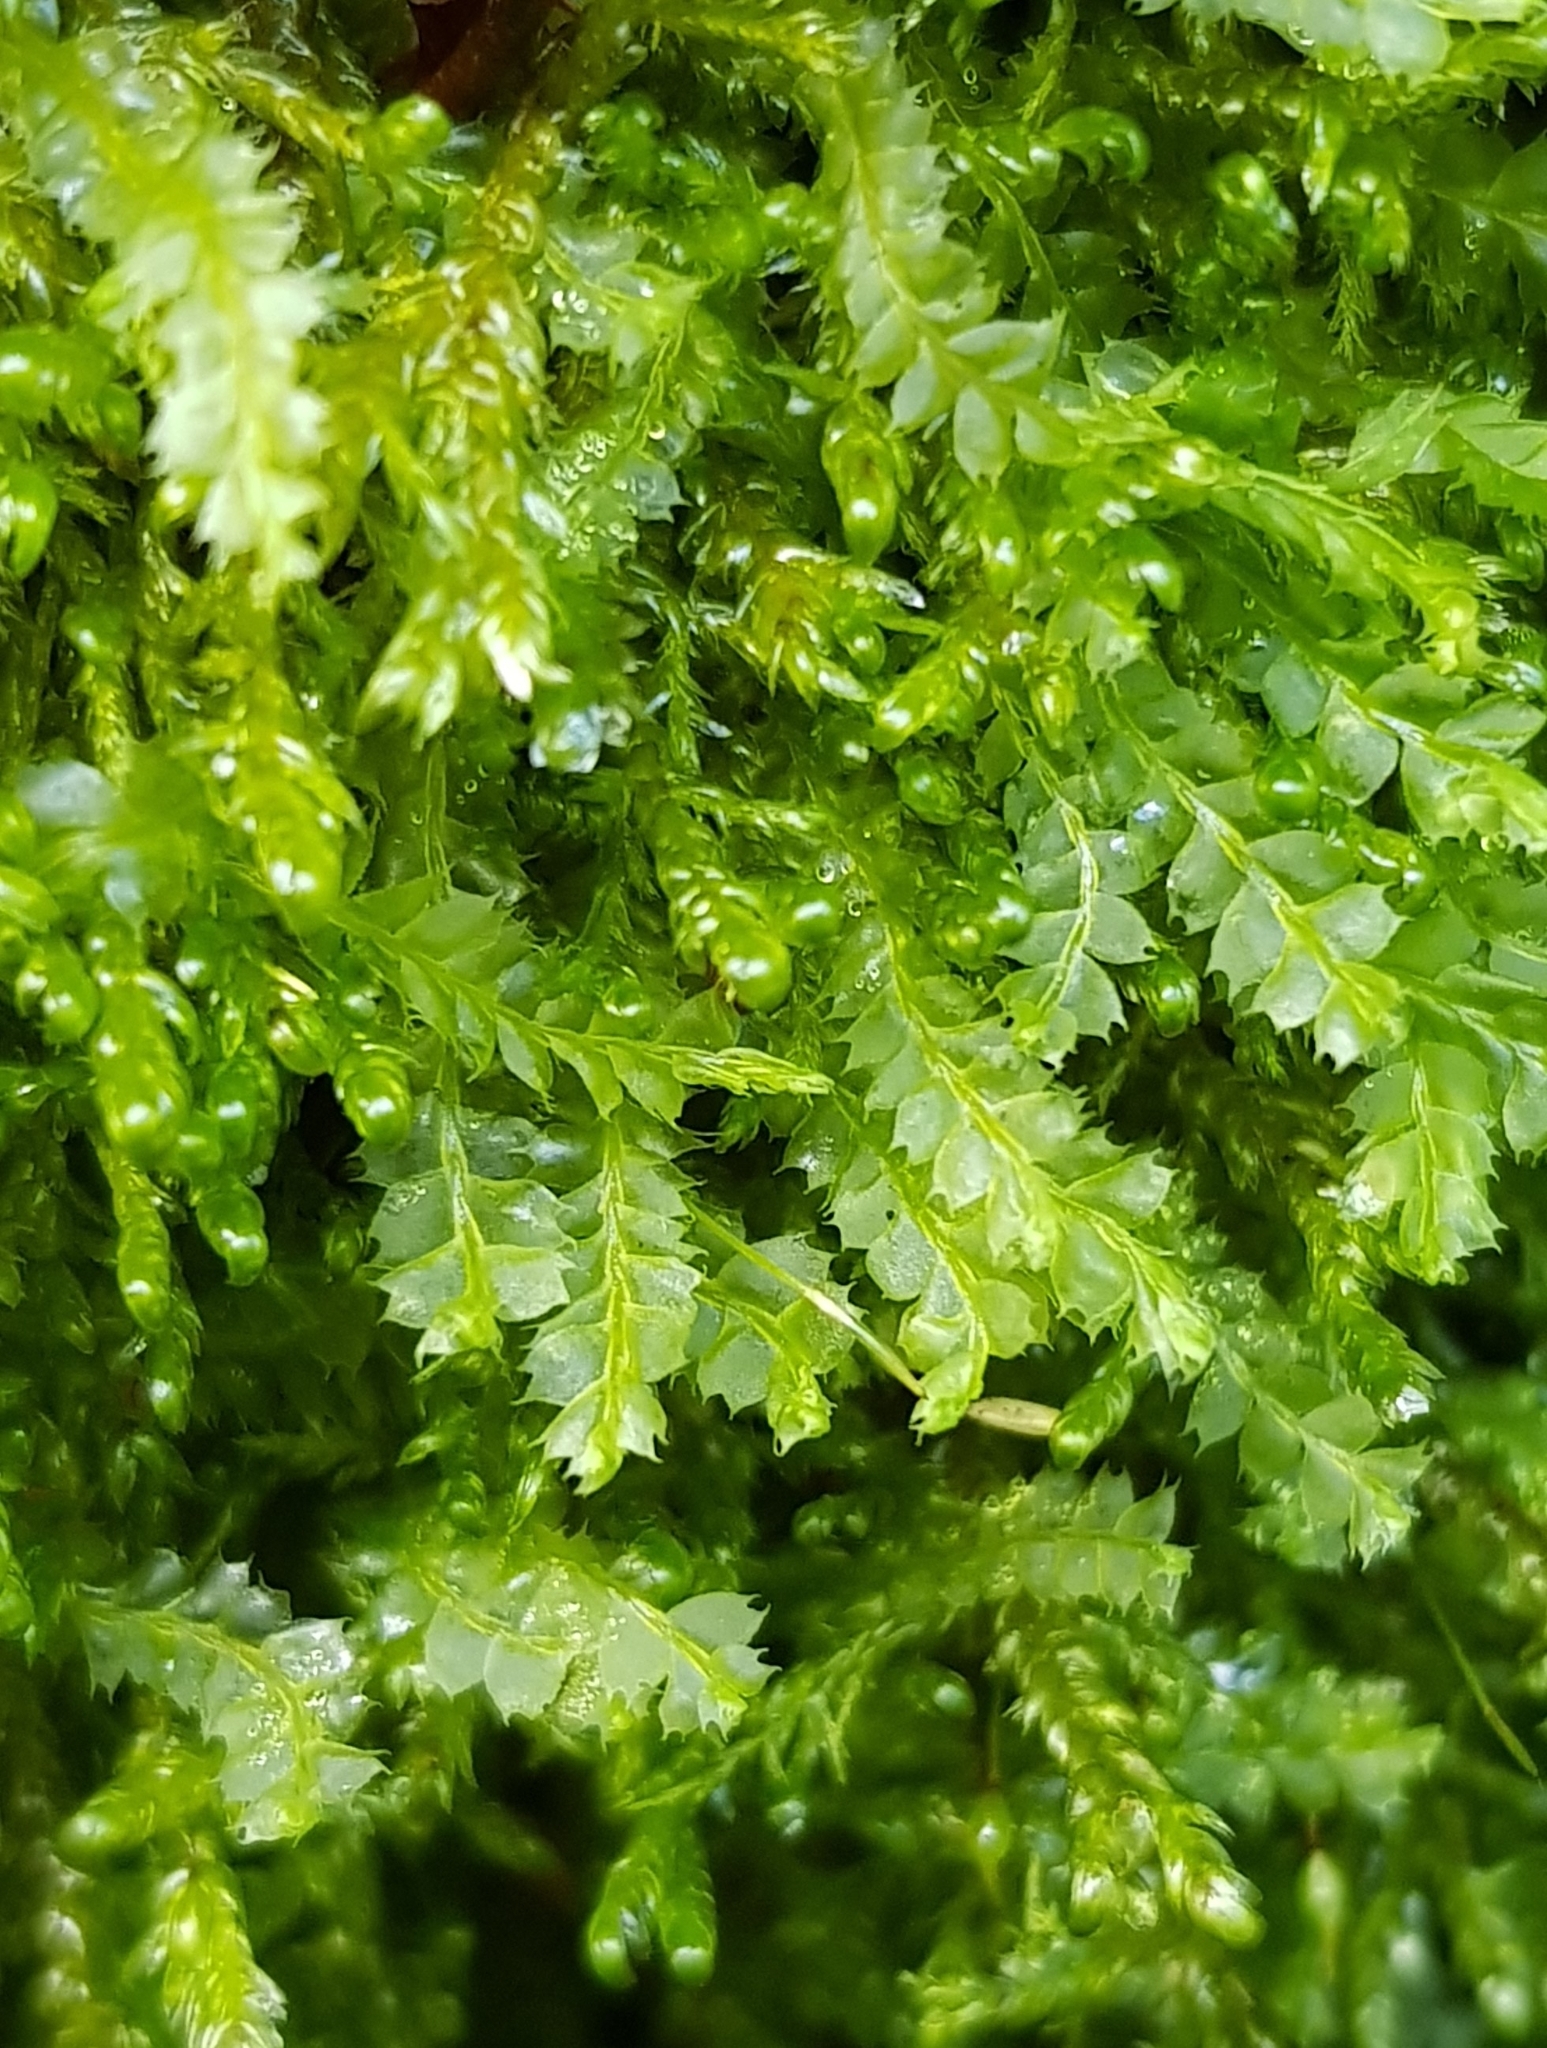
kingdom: Plantae
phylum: Marchantiophyta
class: Jungermanniopsida
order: Jungermanniales
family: Lophocoleaceae
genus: Lophocolea
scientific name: Lophocolea bidentata
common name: Bifid crestwort
